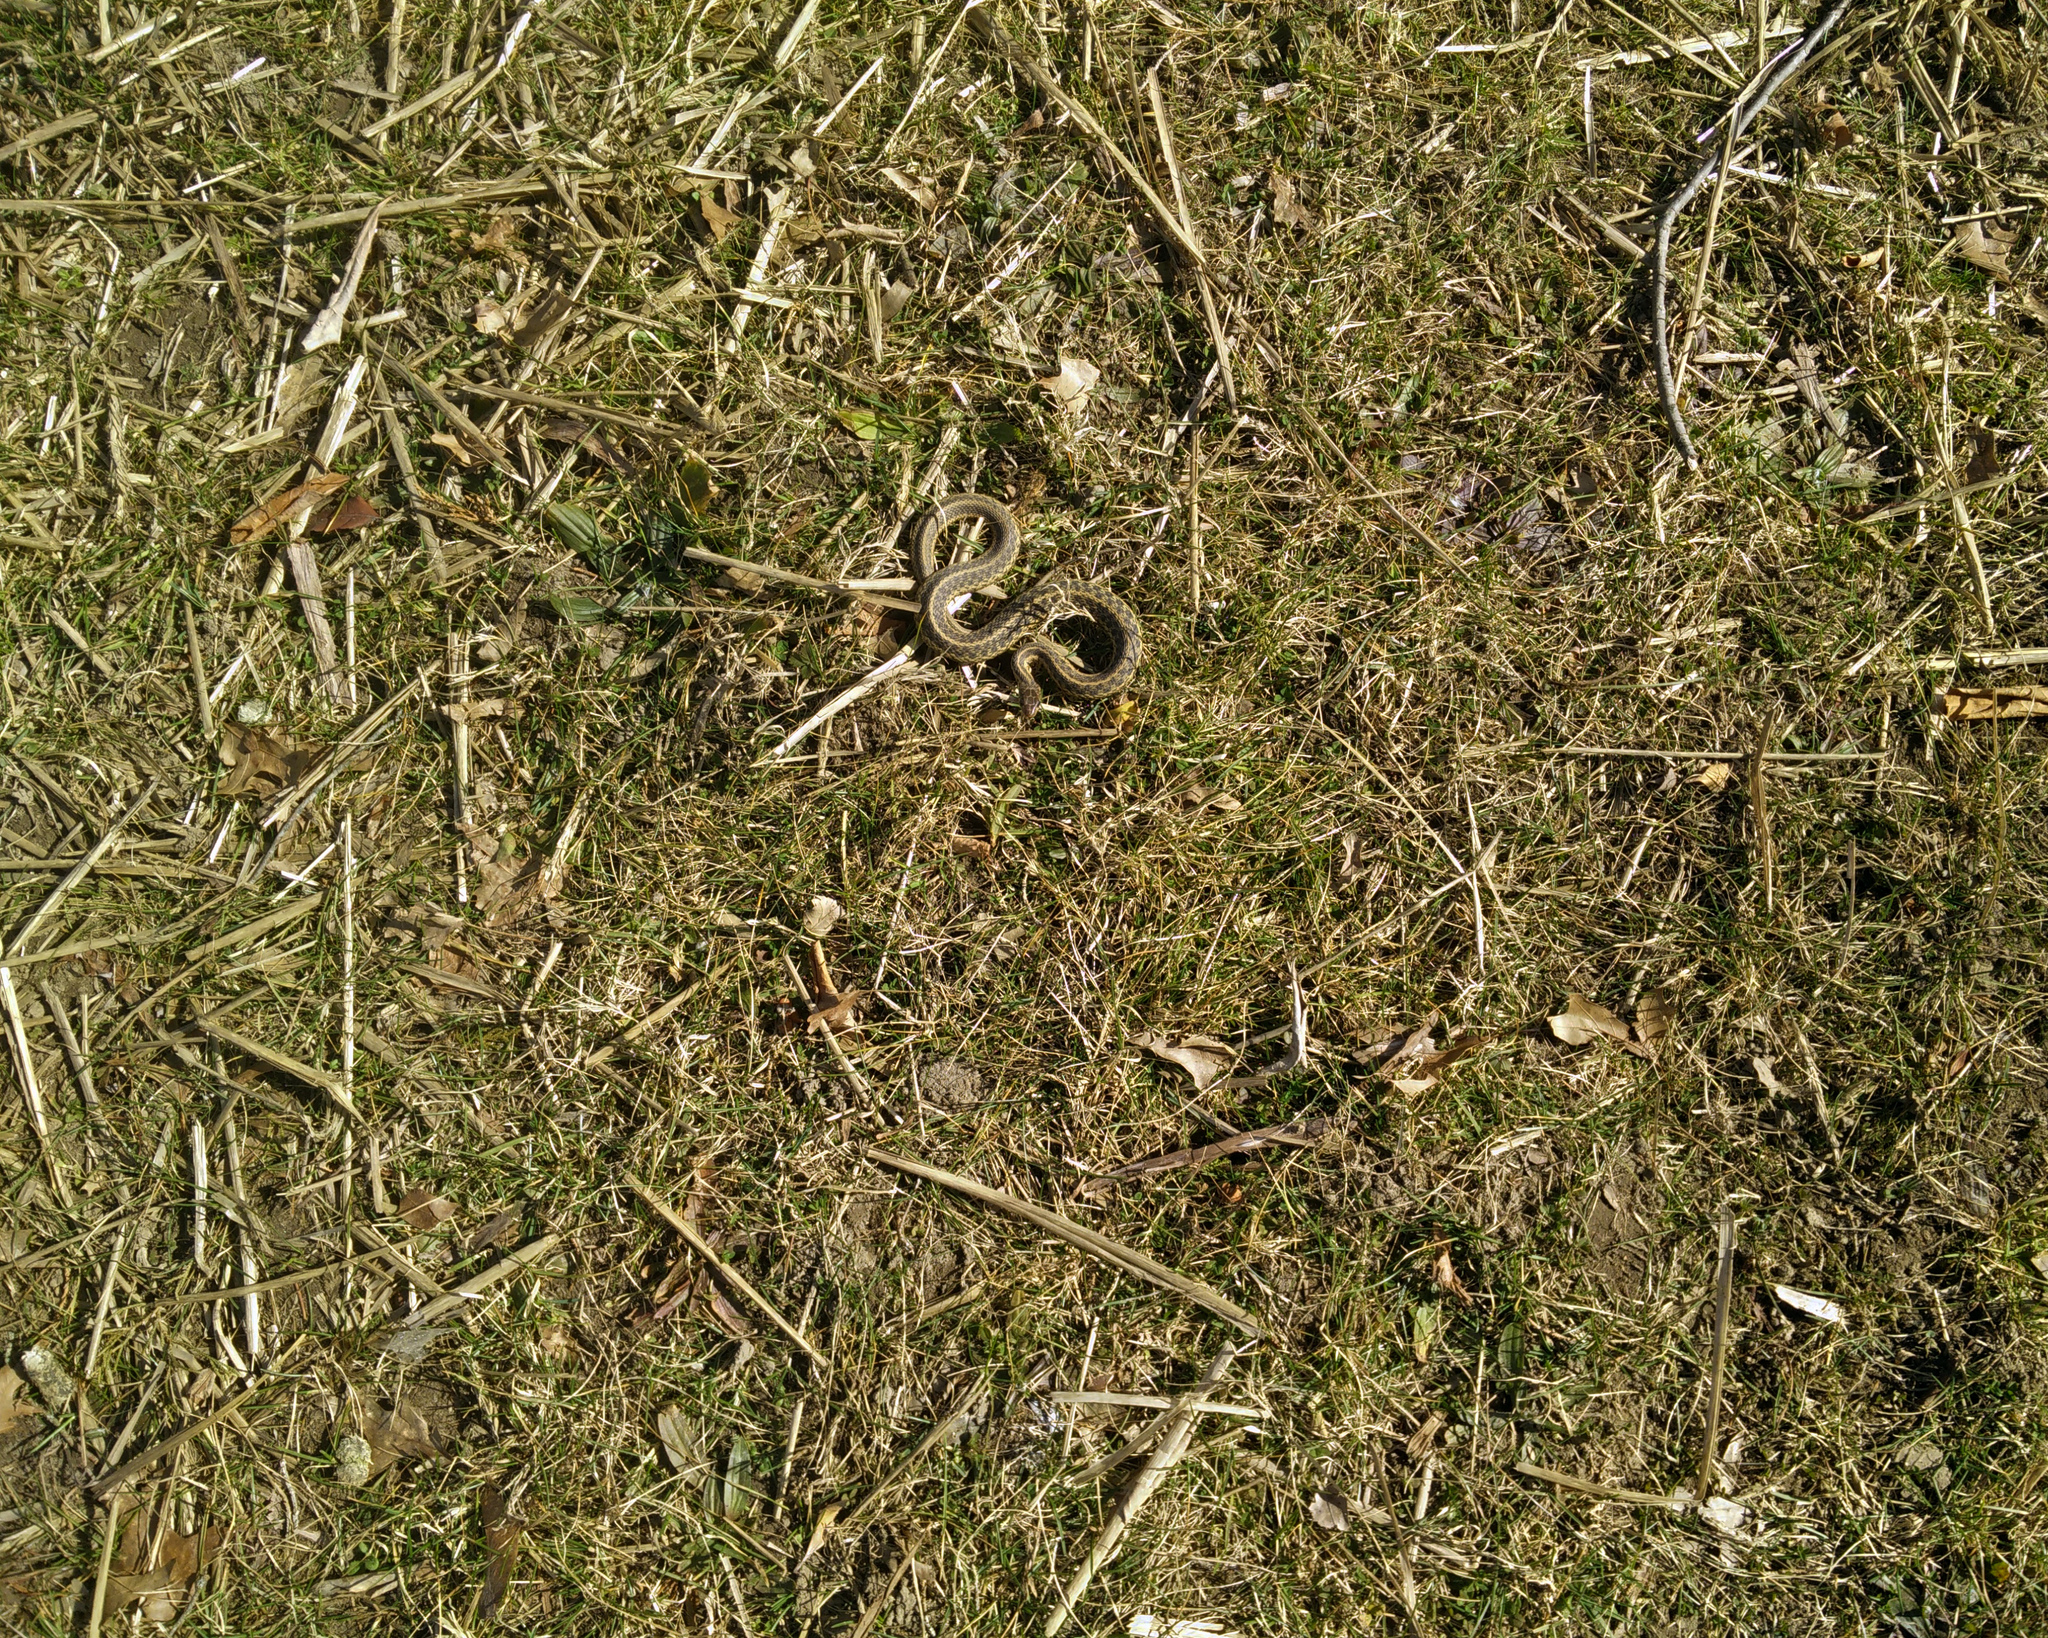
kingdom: Animalia
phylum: Chordata
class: Squamata
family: Colubridae
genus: Thamnophis
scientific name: Thamnophis sirtalis
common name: Common garter snake
